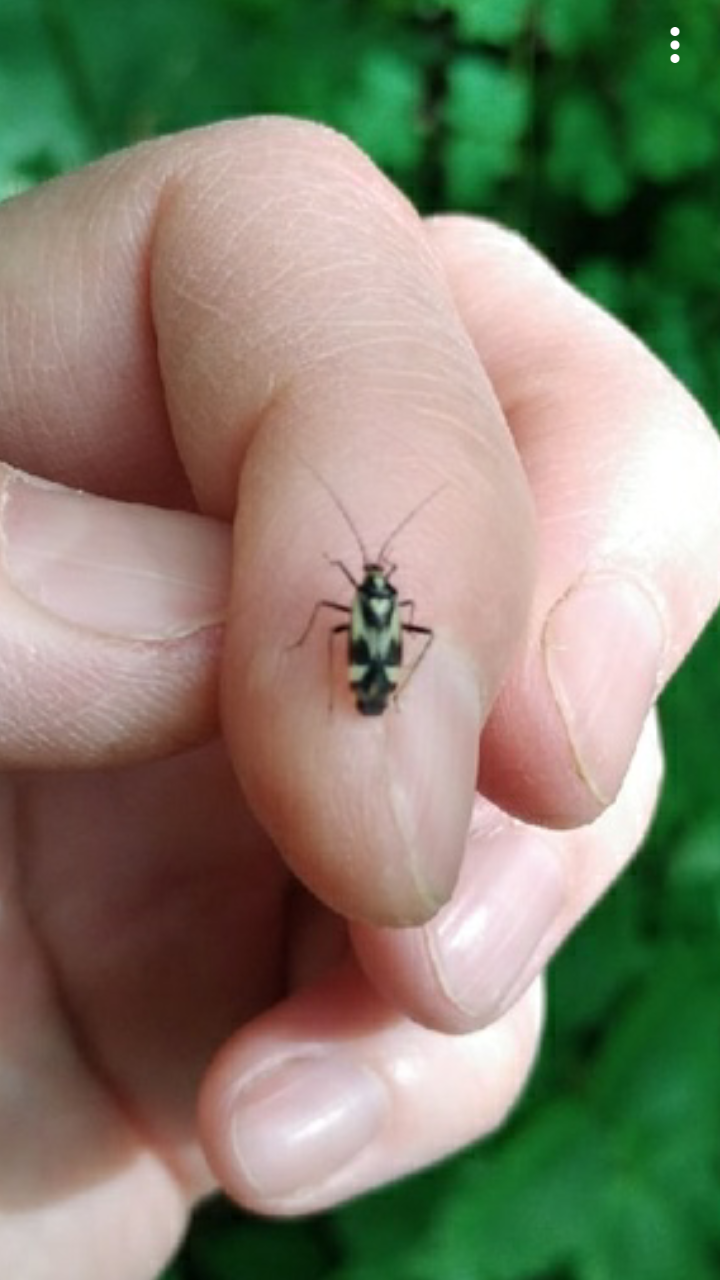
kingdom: Animalia
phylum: Arthropoda
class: Insecta
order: Hemiptera
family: Miridae
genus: Grypocoris
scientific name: Grypocoris sexguttatus
